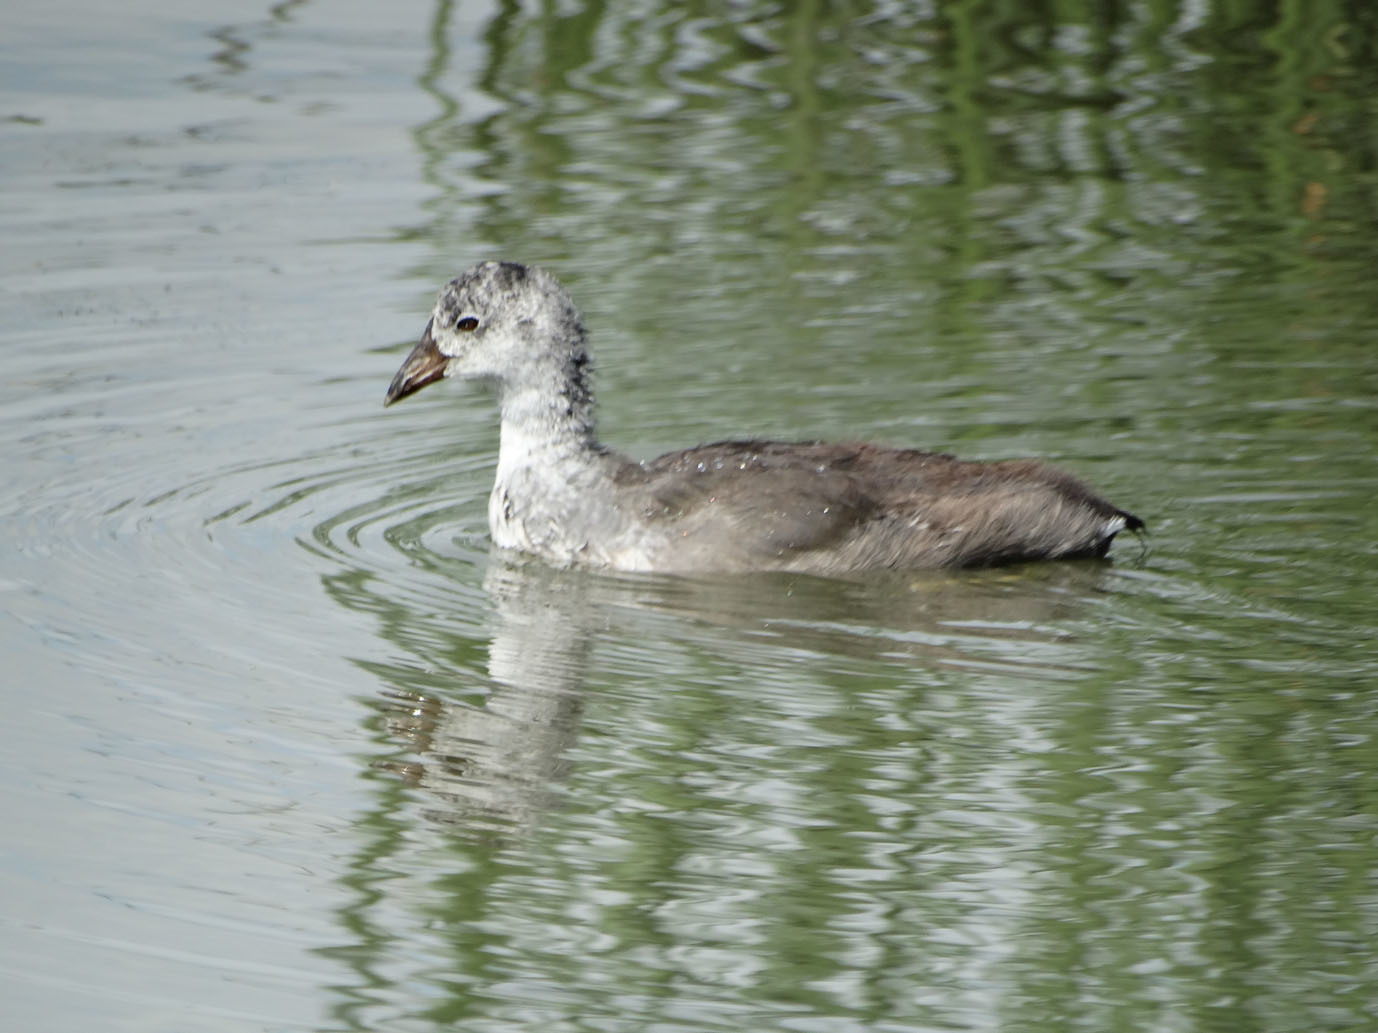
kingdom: Animalia
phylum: Chordata
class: Aves
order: Gruiformes
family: Rallidae
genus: Fulica
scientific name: Fulica americana
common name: American coot
